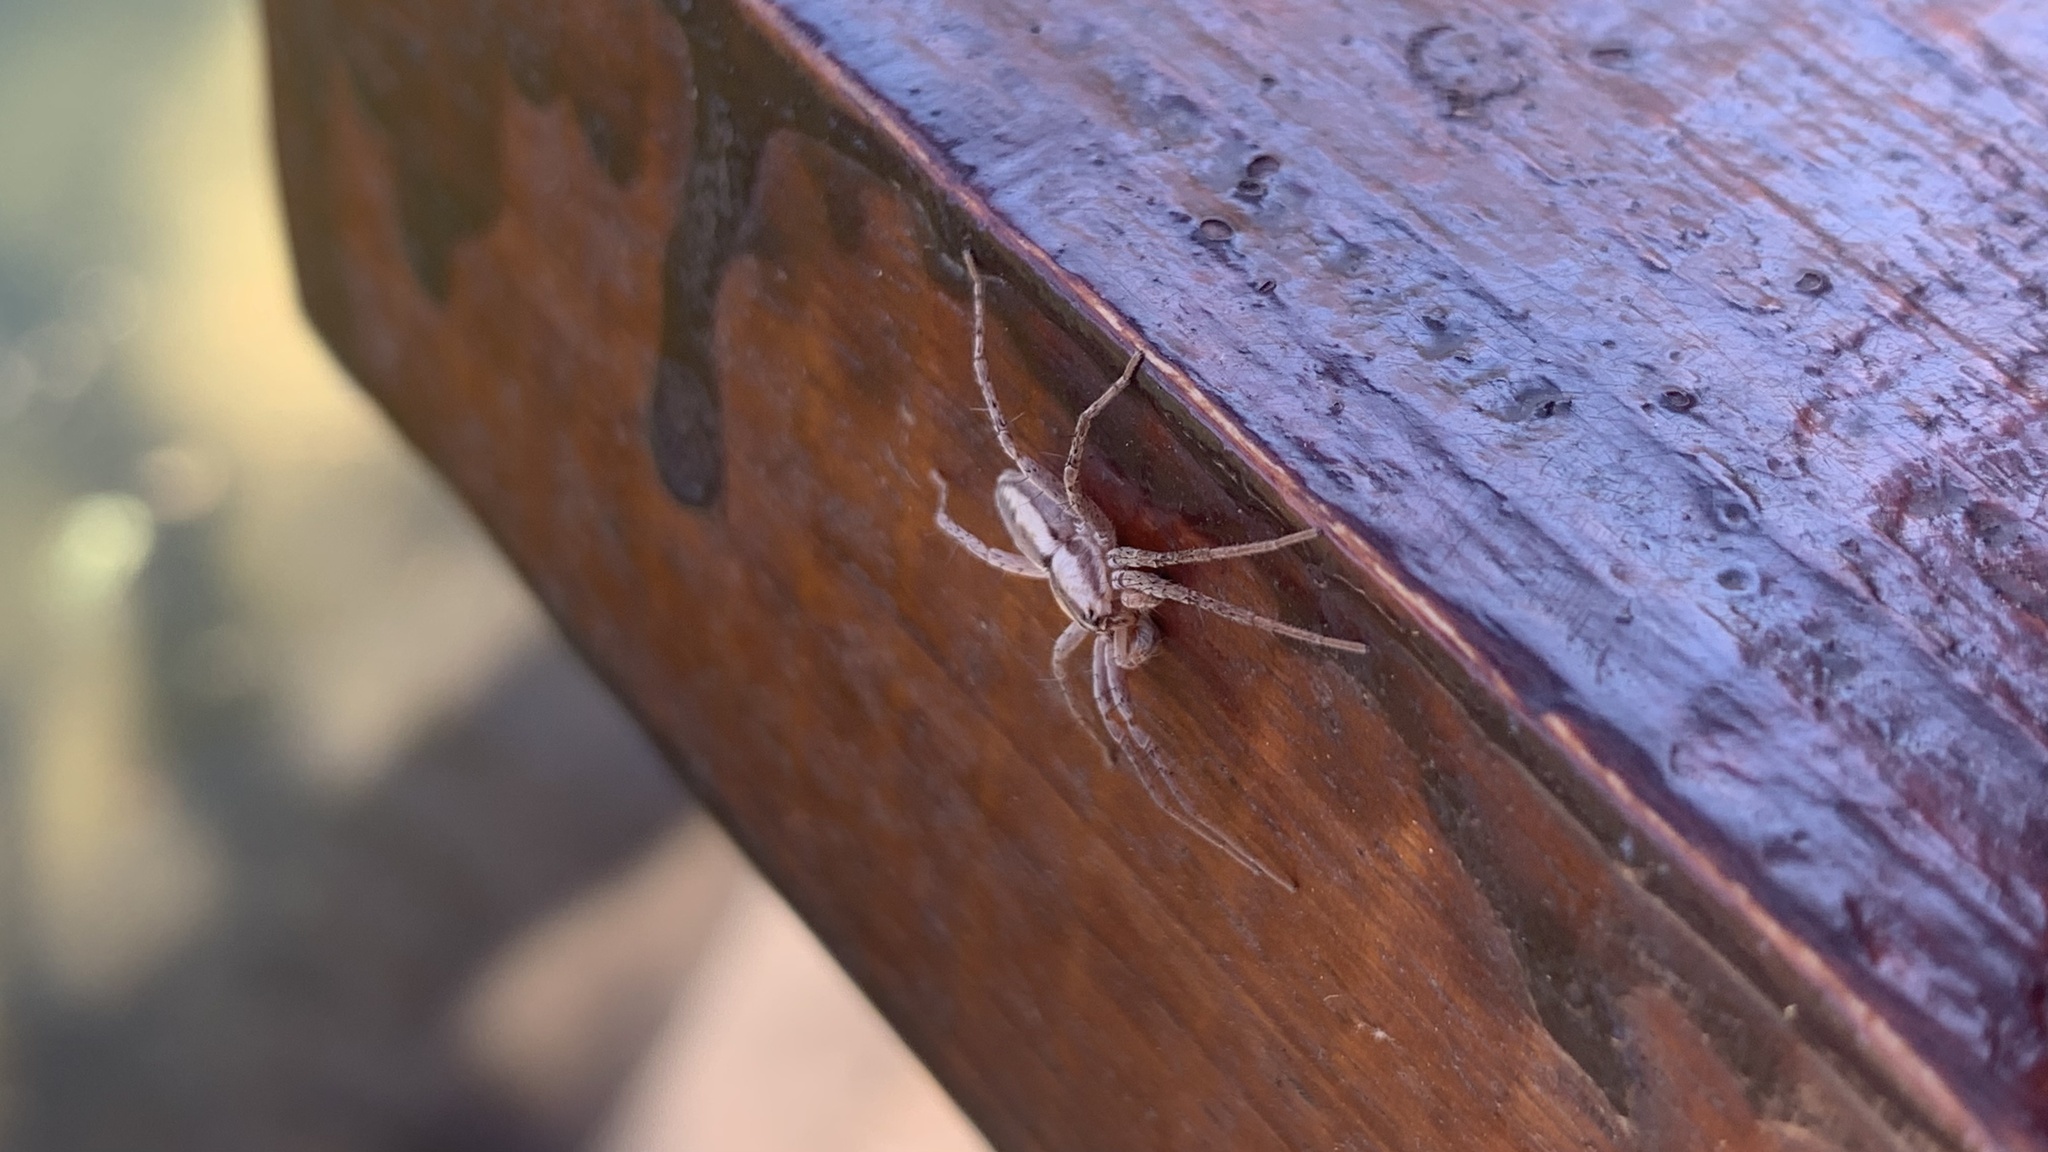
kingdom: Animalia
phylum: Arthropoda
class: Arachnida
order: Araneae
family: Anyphaenidae
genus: Arachosia
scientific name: Arachosia praesignis
